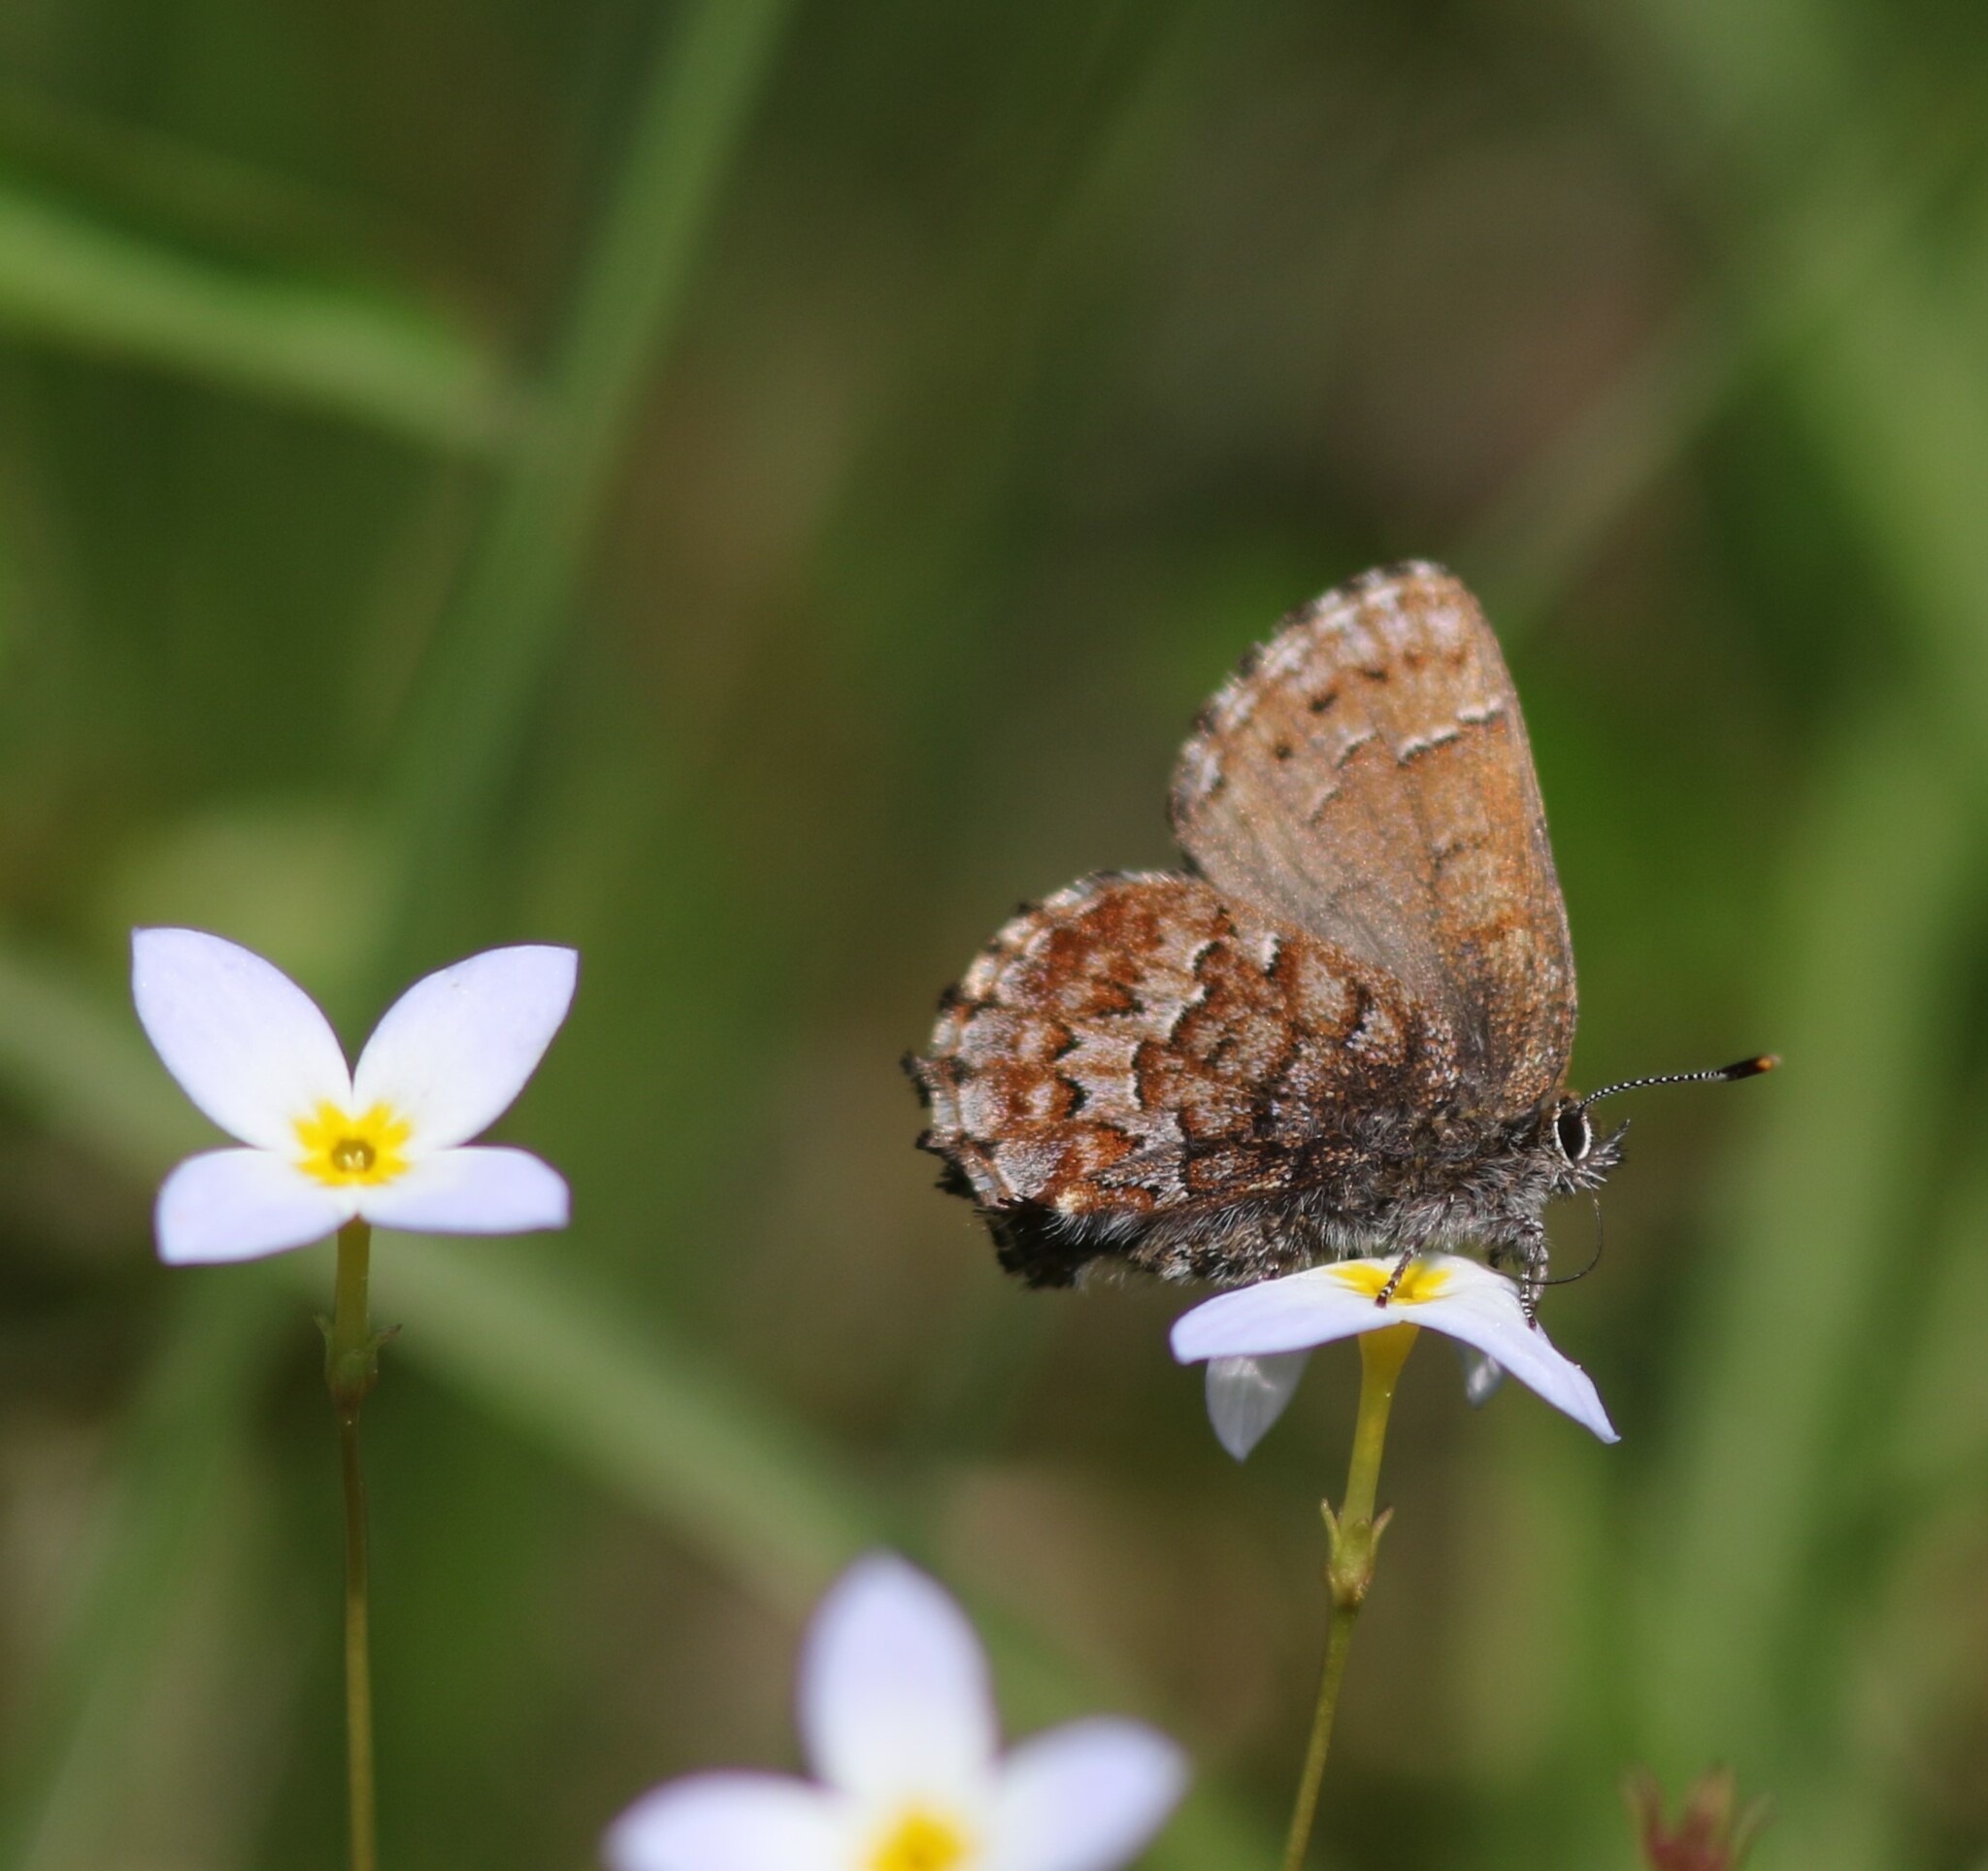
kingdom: Animalia
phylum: Arthropoda
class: Insecta
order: Lepidoptera
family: Lycaenidae
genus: Incisalia
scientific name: Incisalia niphon
